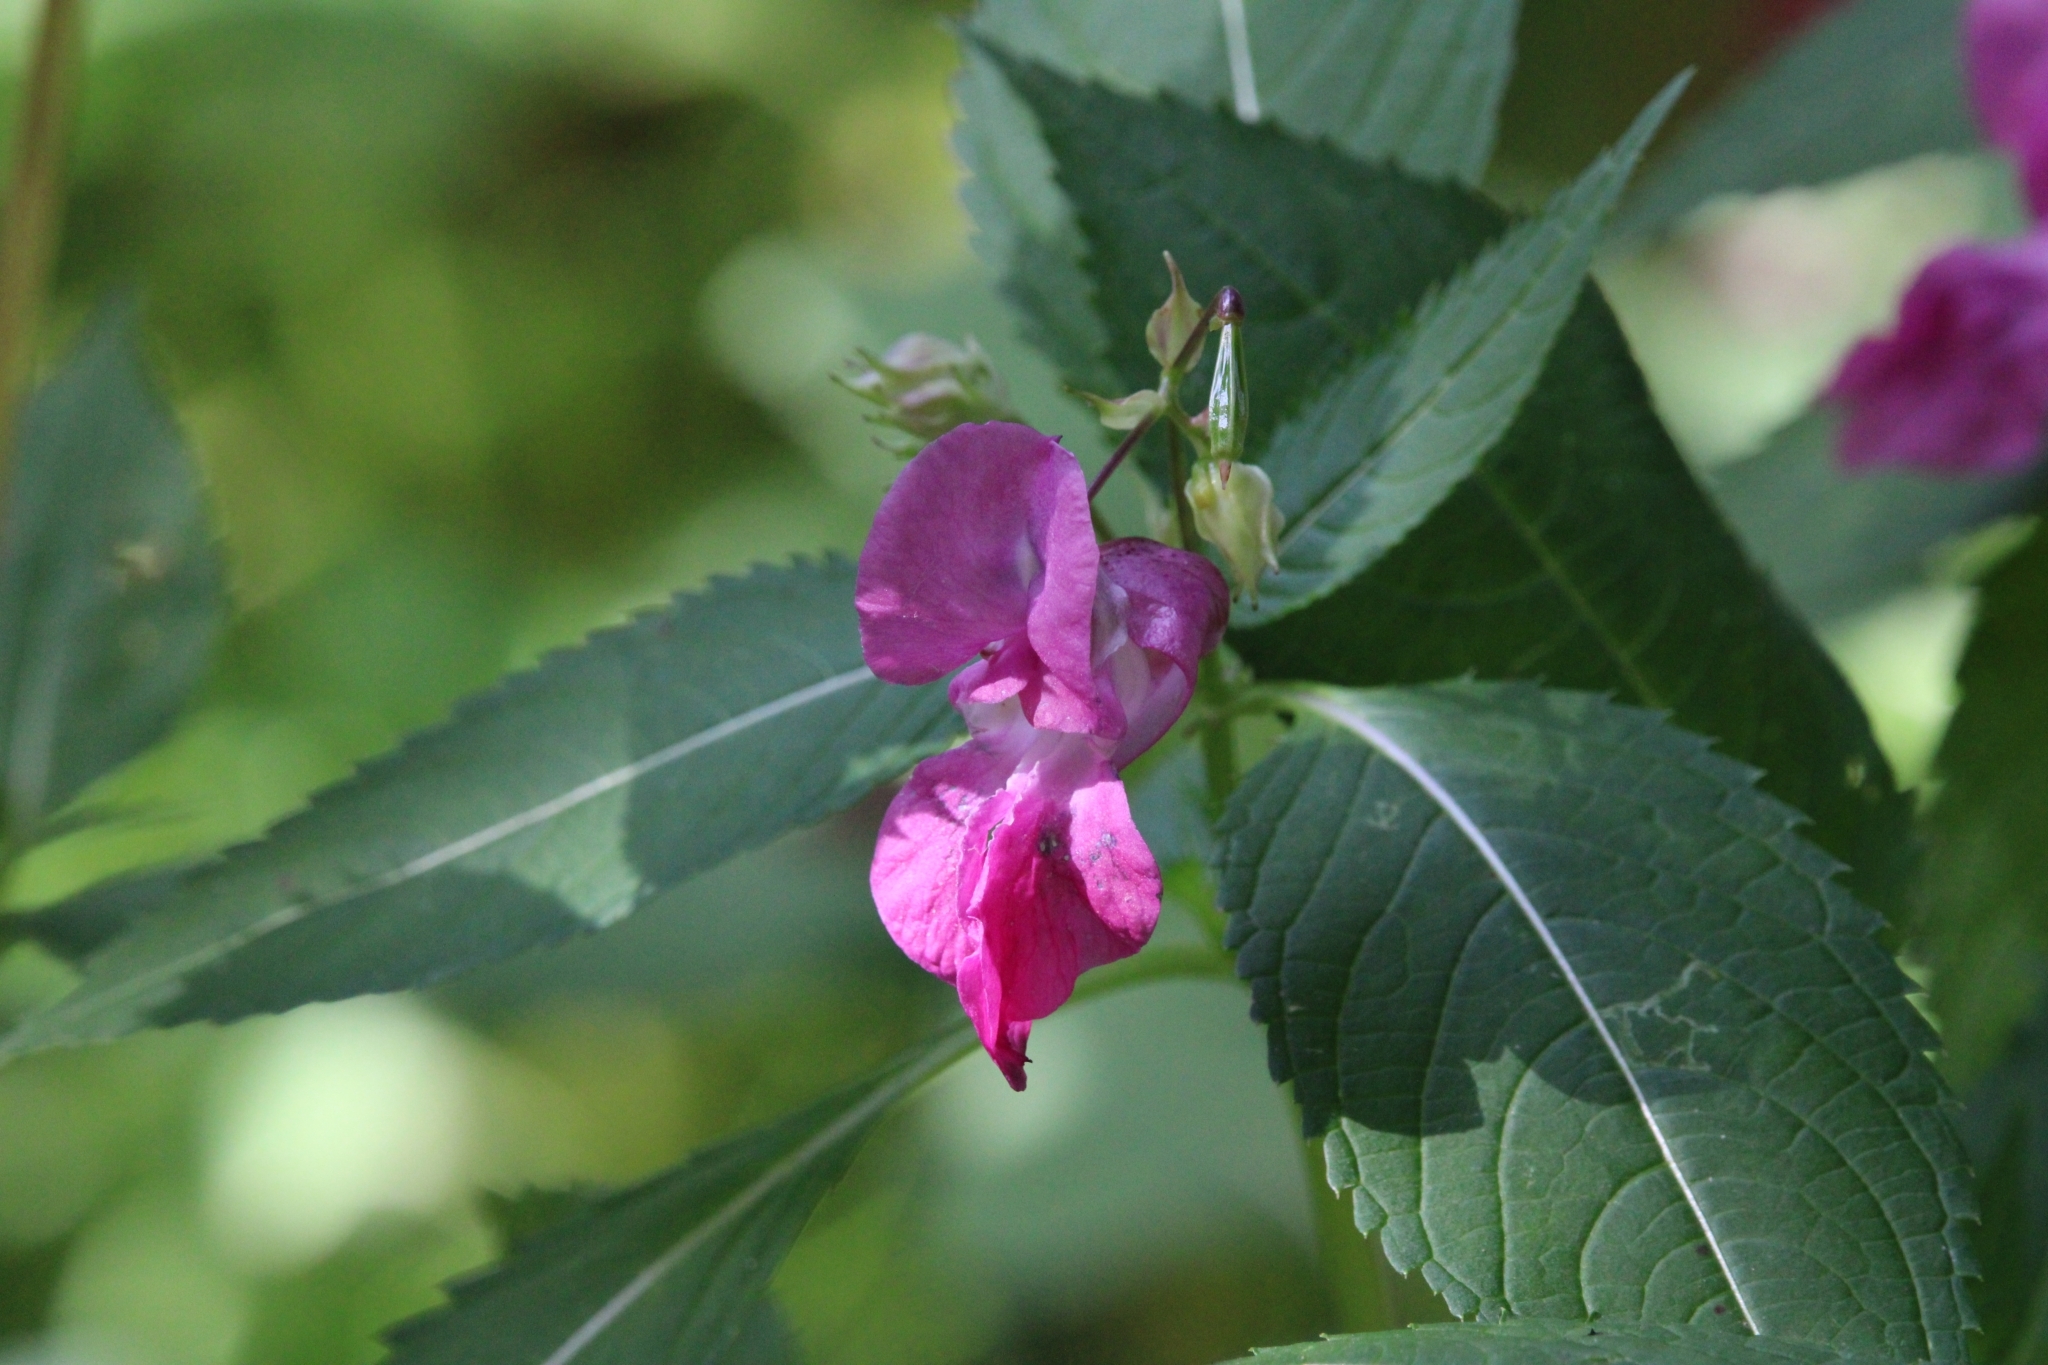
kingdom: Plantae
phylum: Tracheophyta
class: Magnoliopsida
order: Ericales
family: Balsaminaceae
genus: Impatiens
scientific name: Impatiens glandulifera
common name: Himalayan balsam
